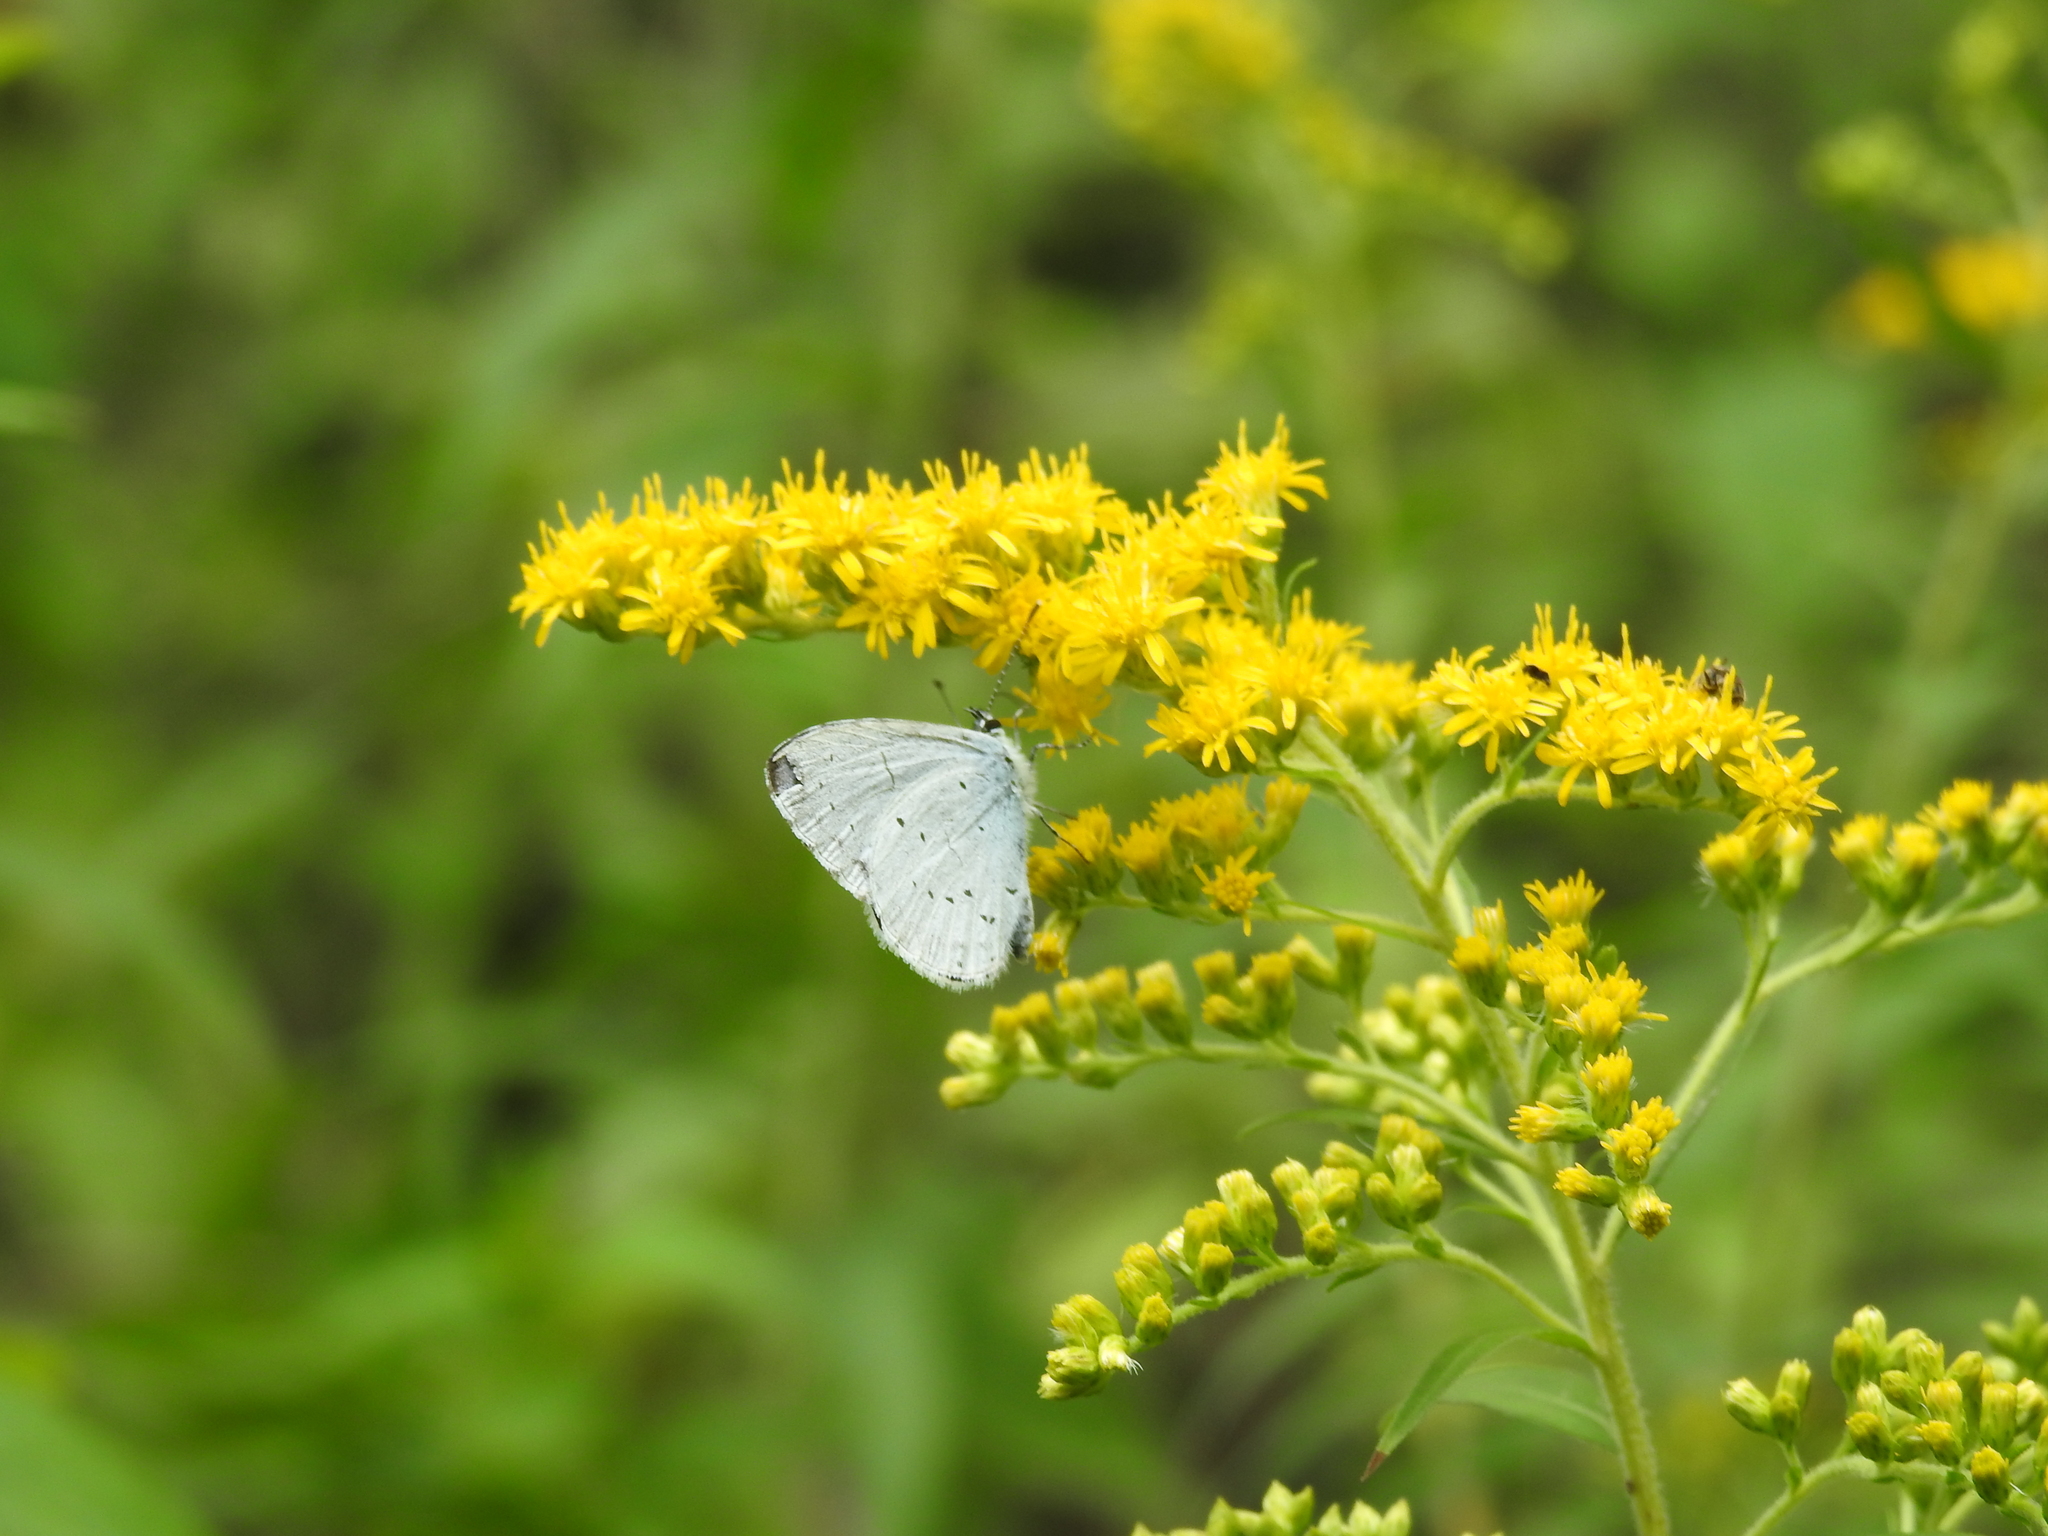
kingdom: Animalia
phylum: Arthropoda
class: Insecta
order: Lepidoptera
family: Lycaenidae
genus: Celastrina
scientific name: Celastrina argiolus
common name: Holly blue
